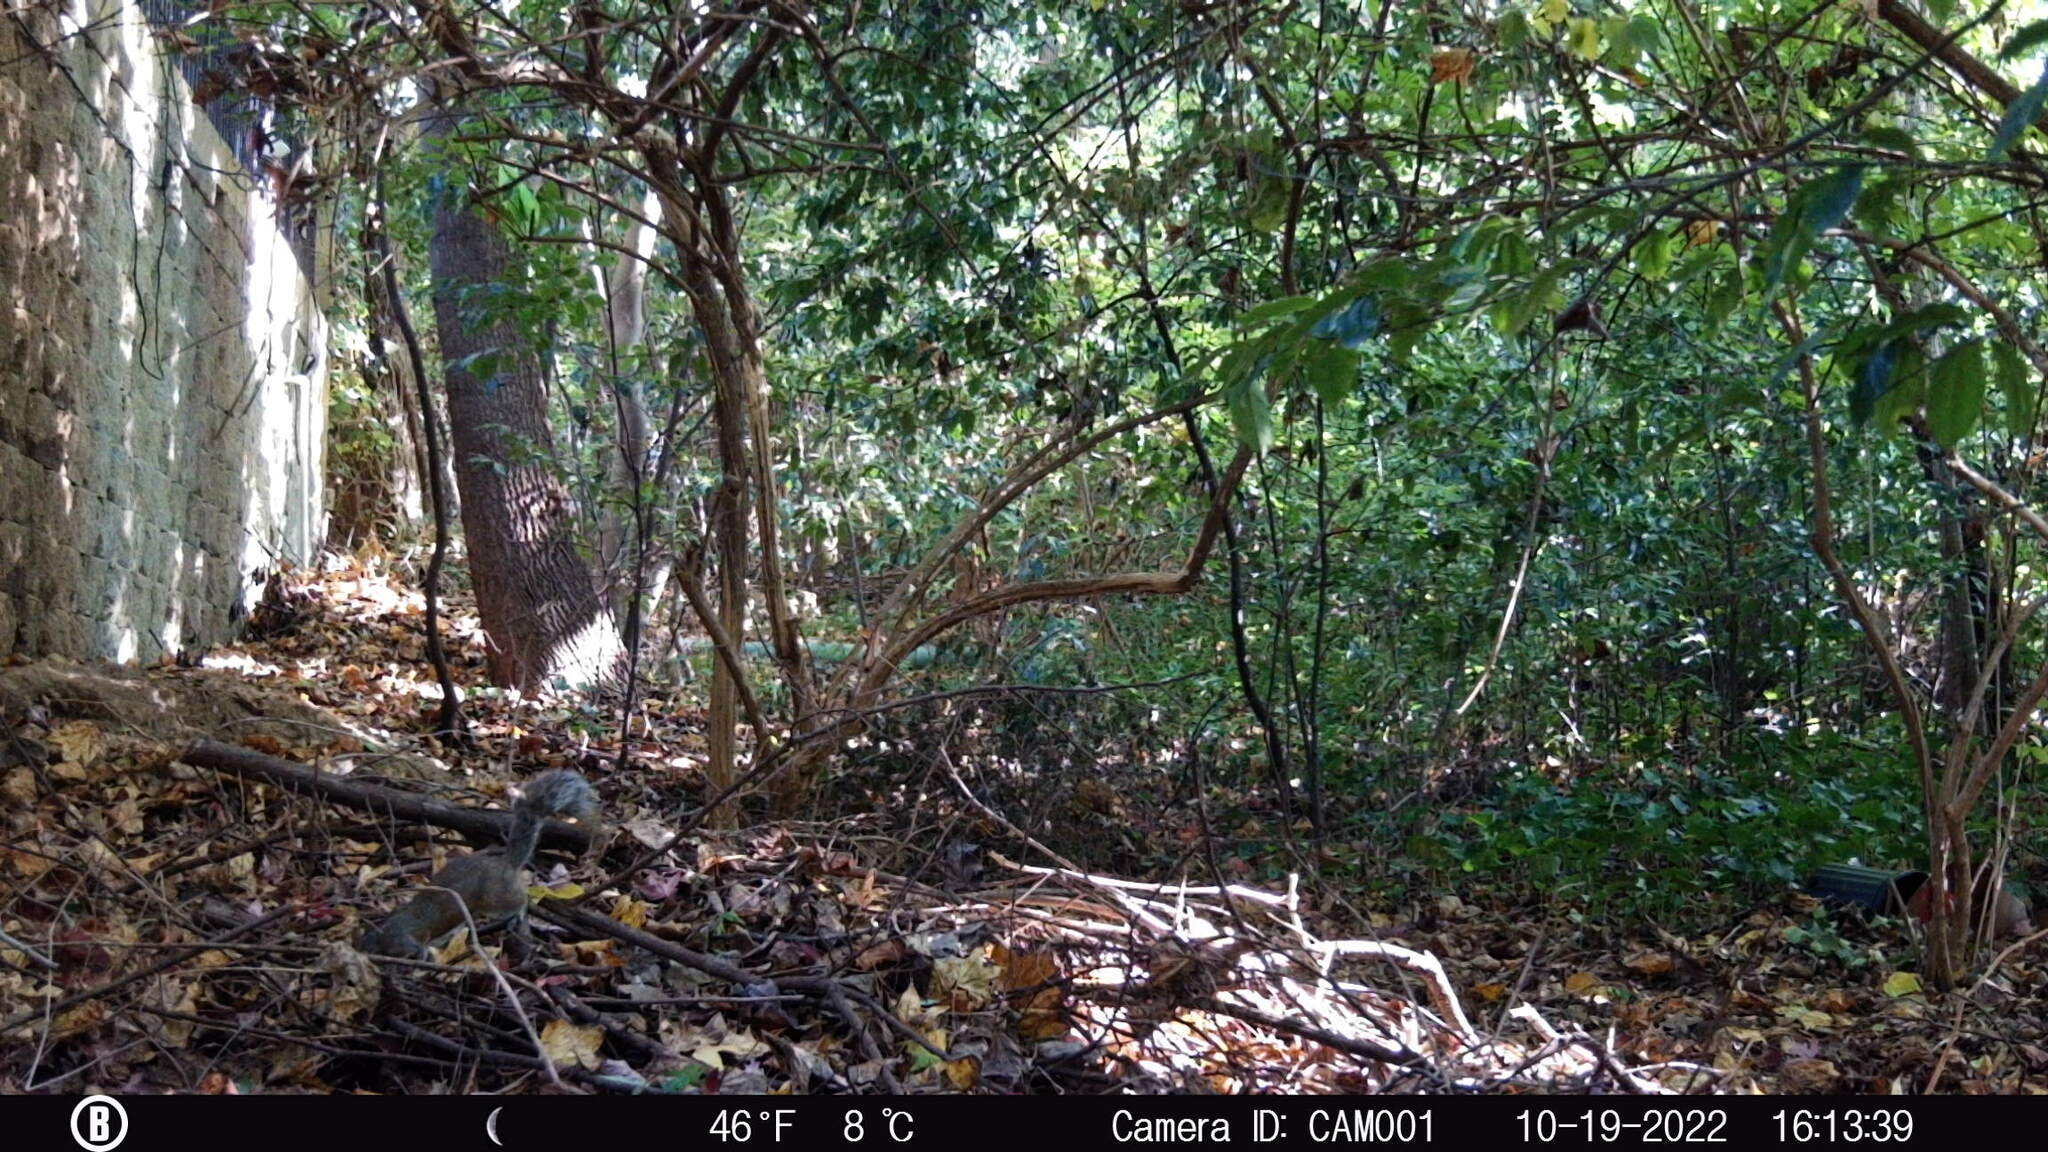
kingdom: Animalia
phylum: Chordata
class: Mammalia
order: Rodentia
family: Sciuridae
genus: Sciurus
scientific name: Sciurus carolinensis
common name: Eastern gray squirrel
